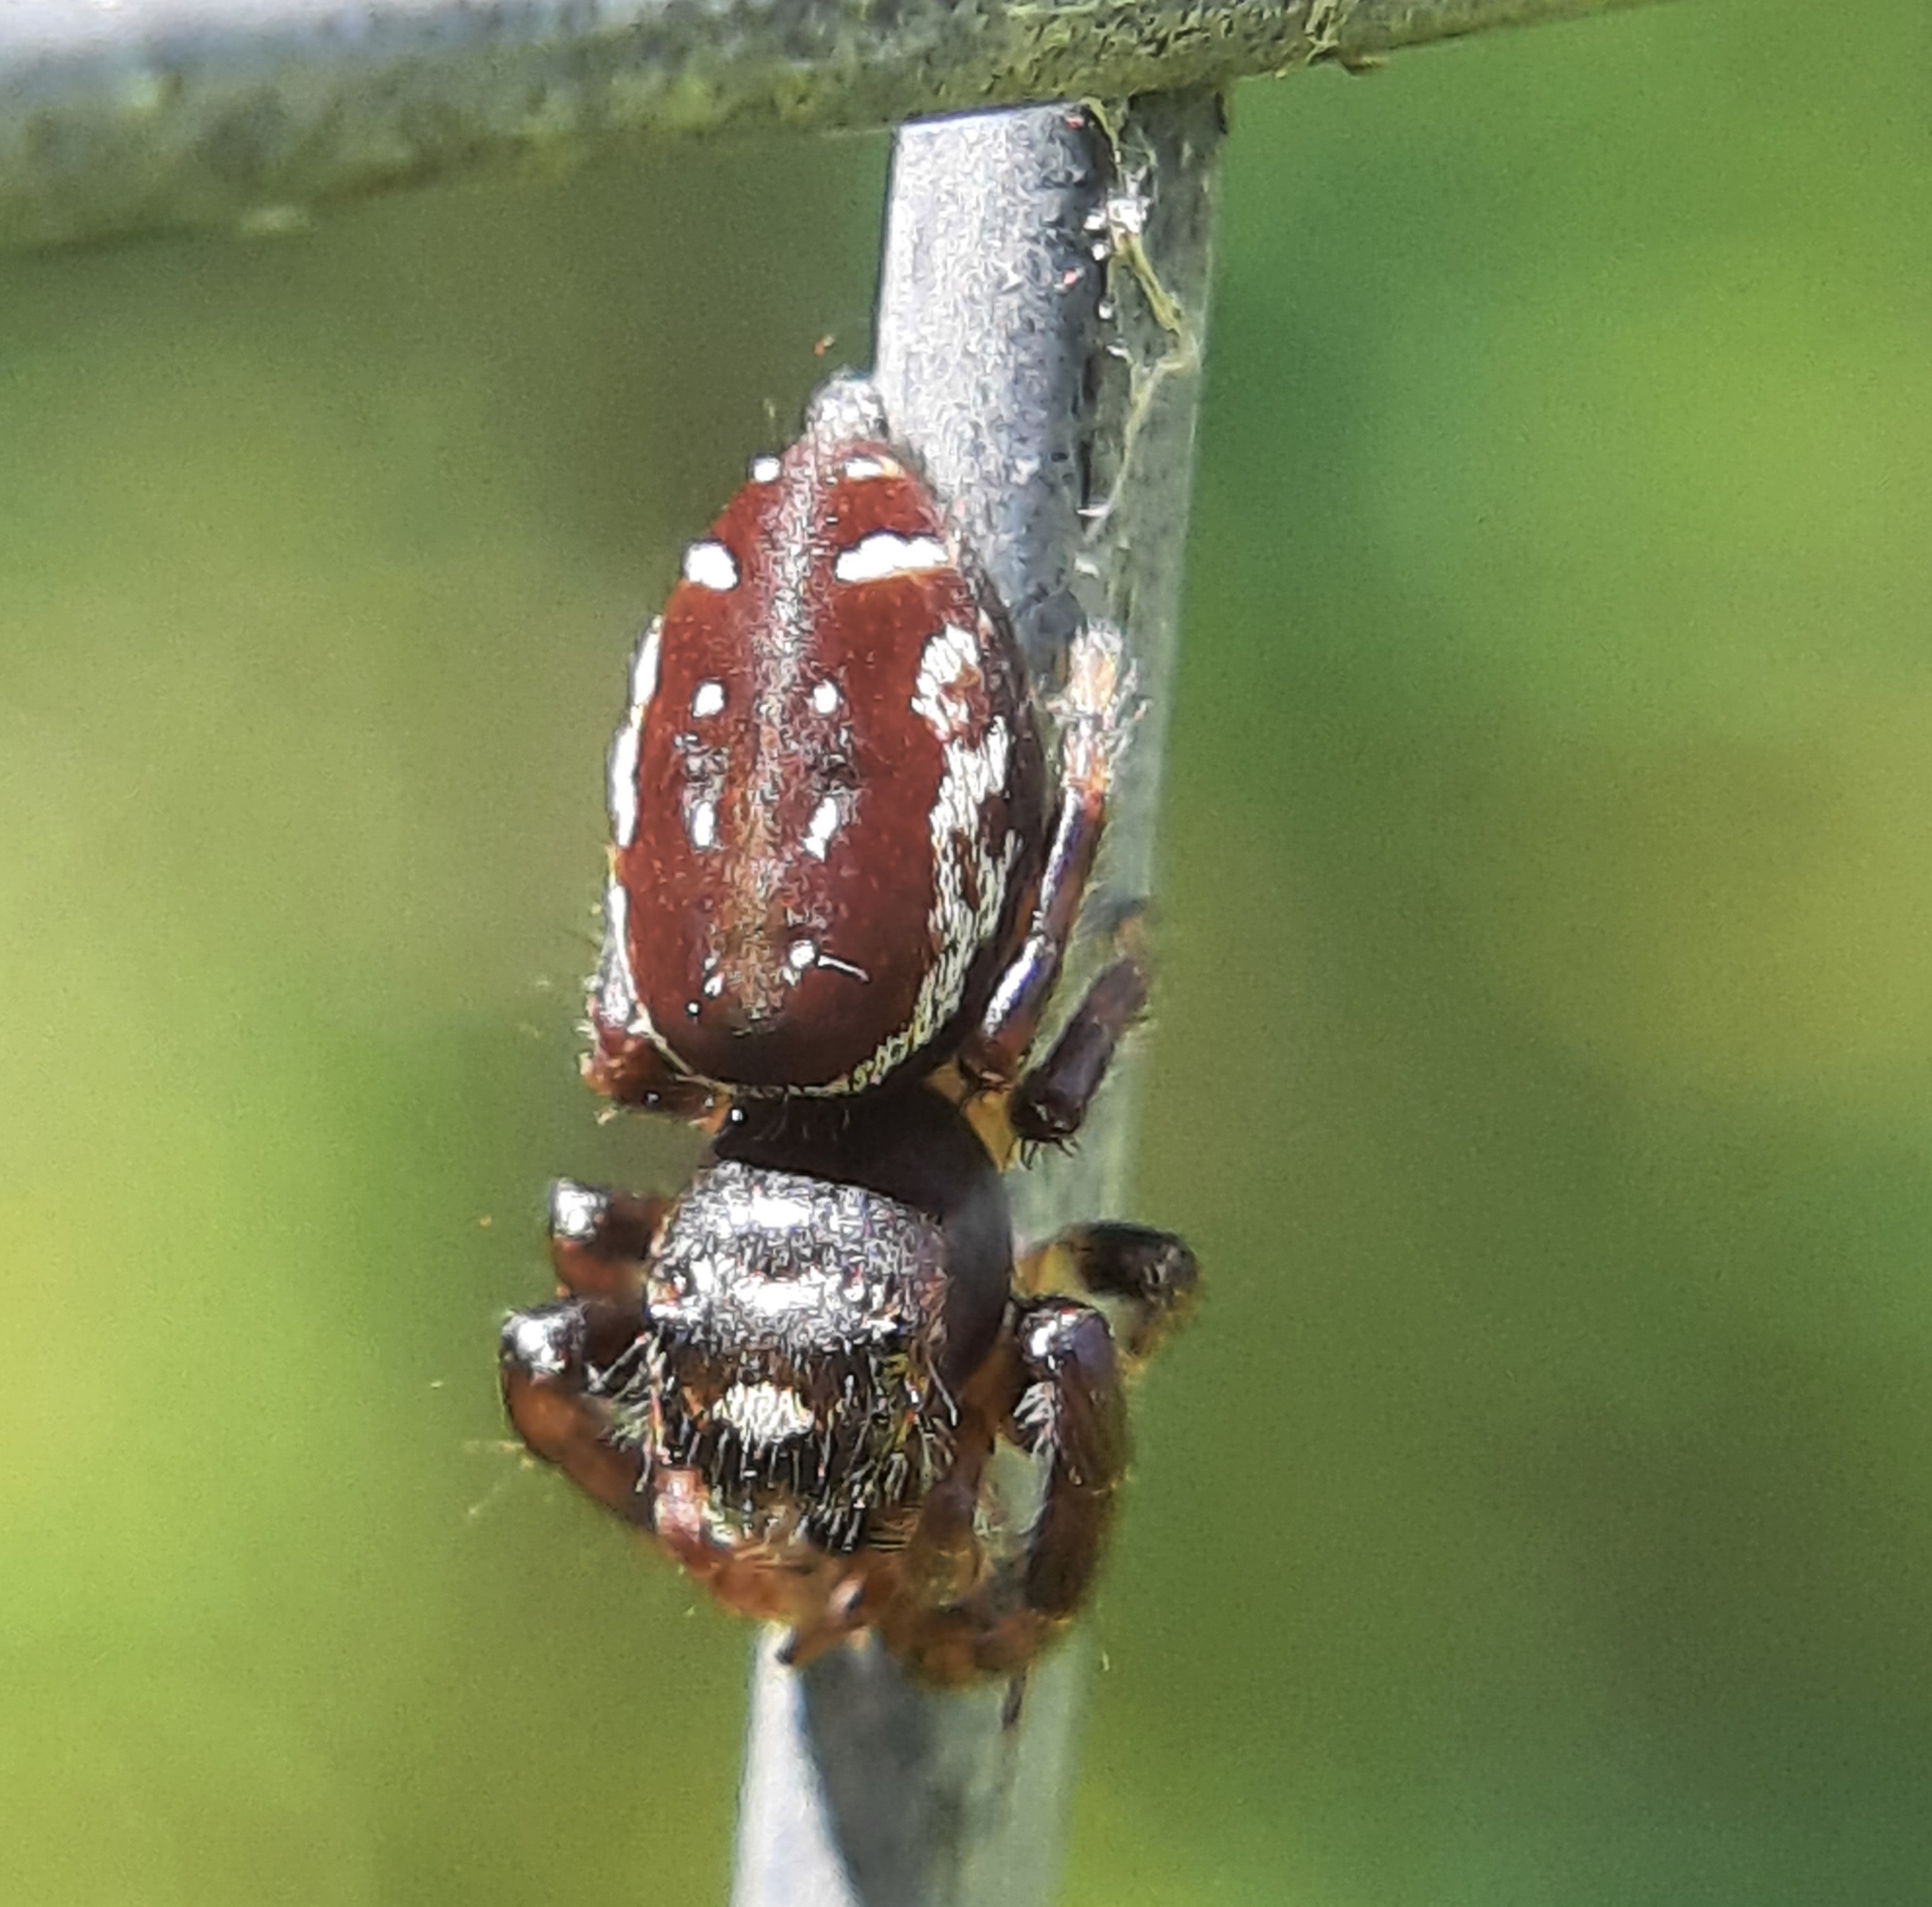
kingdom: Animalia
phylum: Arthropoda
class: Arachnida
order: Araneae
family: Salticidae
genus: Eris
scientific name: Eris militaris
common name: Bronze jumper
